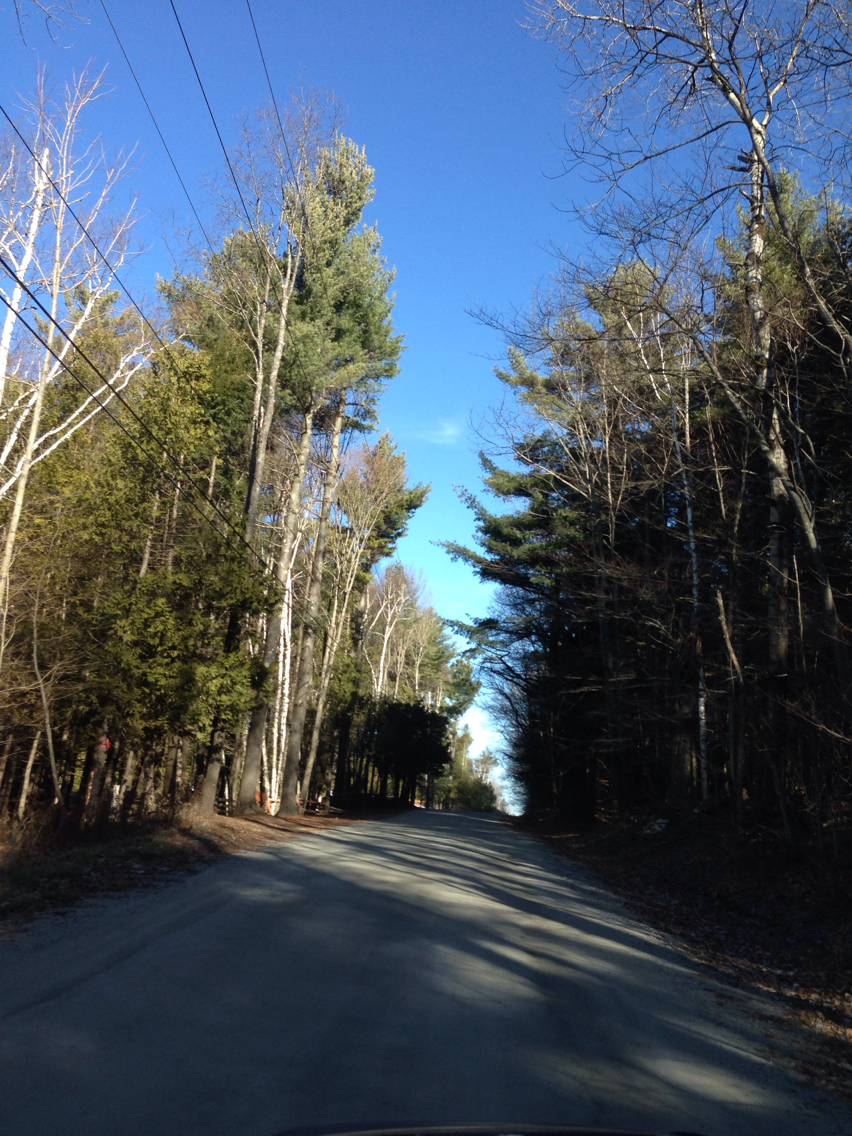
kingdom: Plantae
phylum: Tracheophyta
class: Pinopsida
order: Pinales
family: Pinaceae
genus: Pinus
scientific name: Pinus strobus
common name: Weymouth pine
